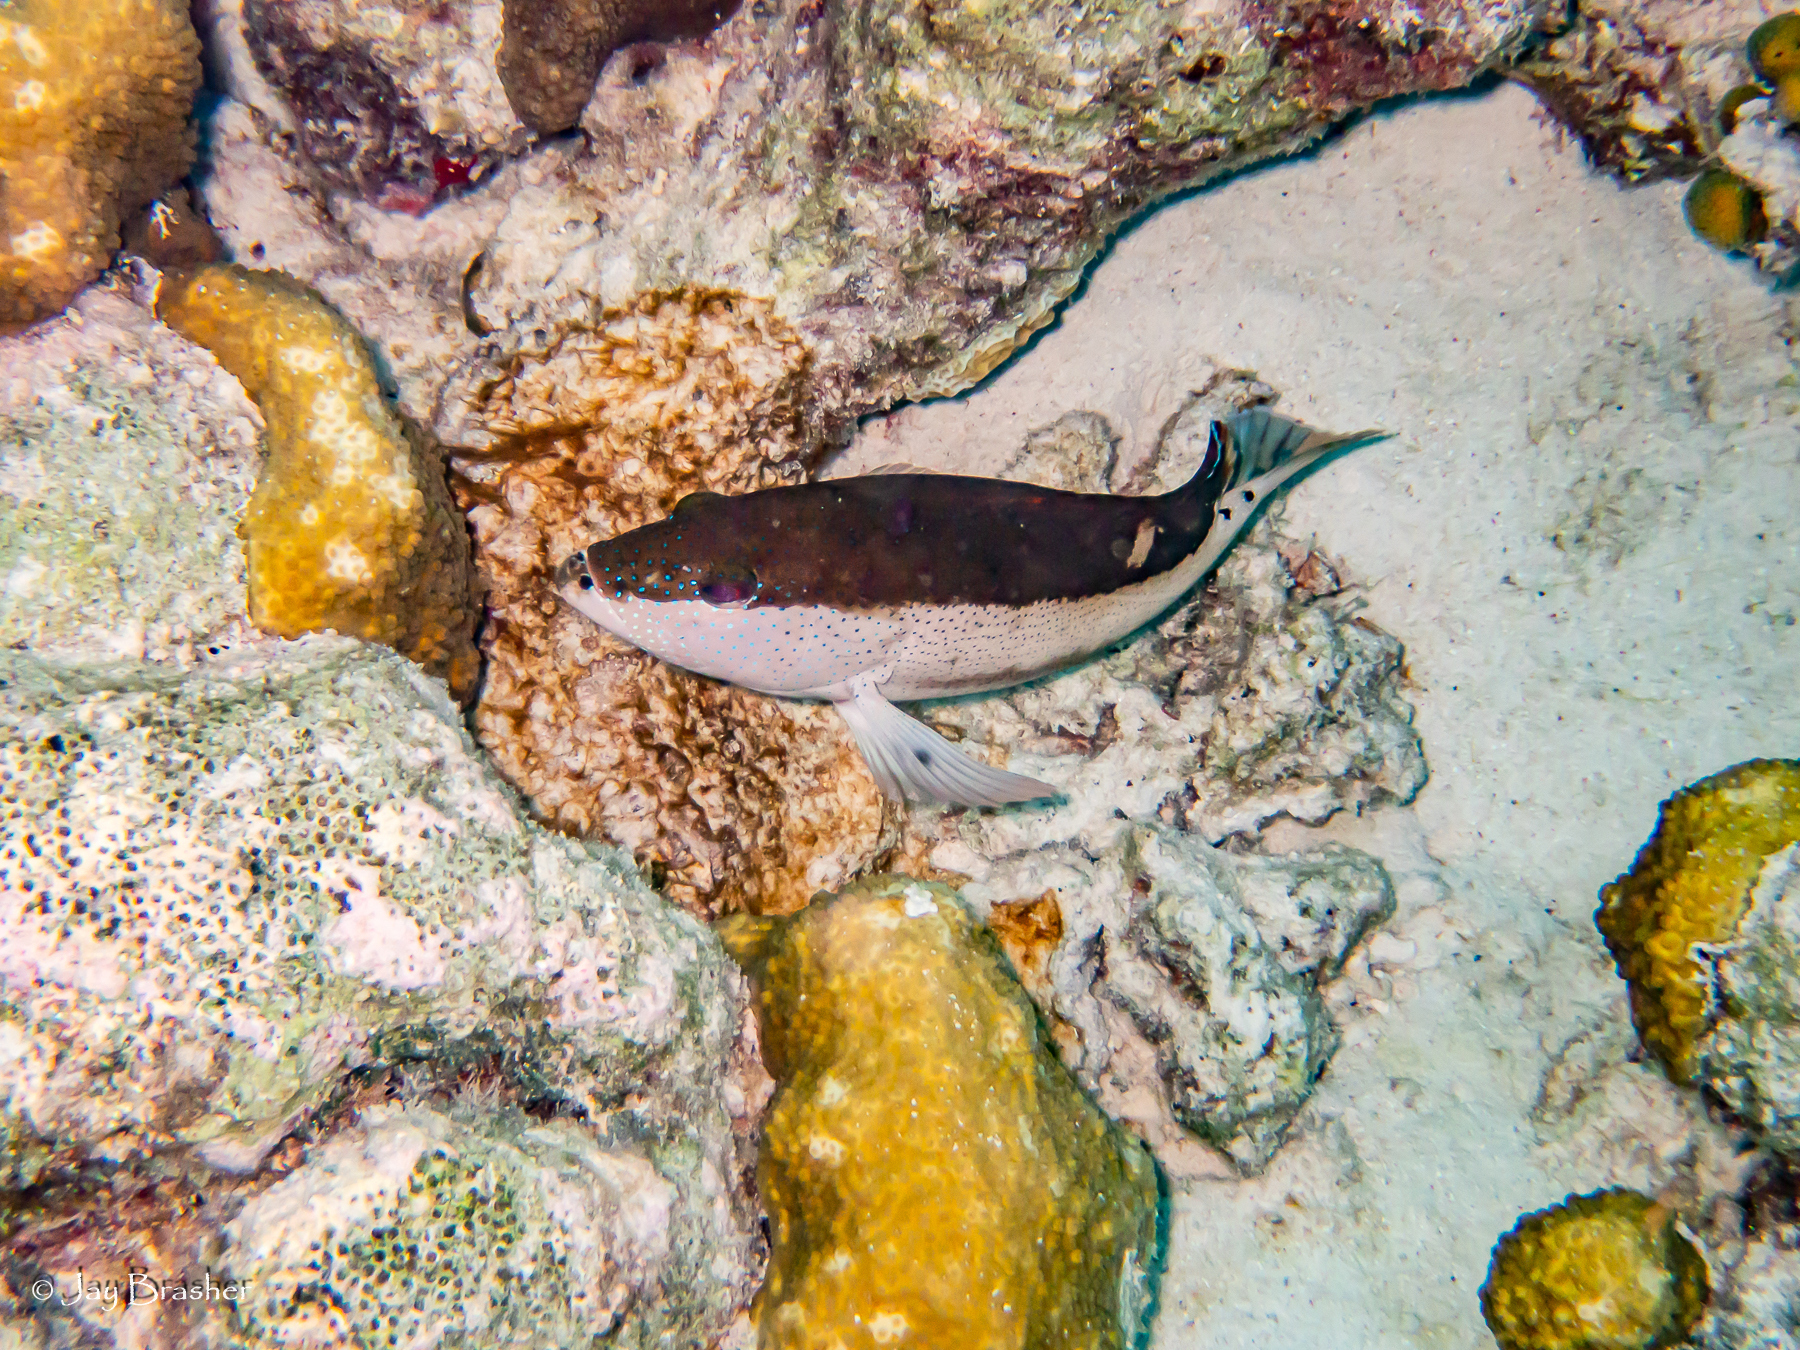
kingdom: Animalia
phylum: Chordata
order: Perciformes
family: Serranidae
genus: Cephalopholis
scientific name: Cephalopholis fulva
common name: Butterfish
